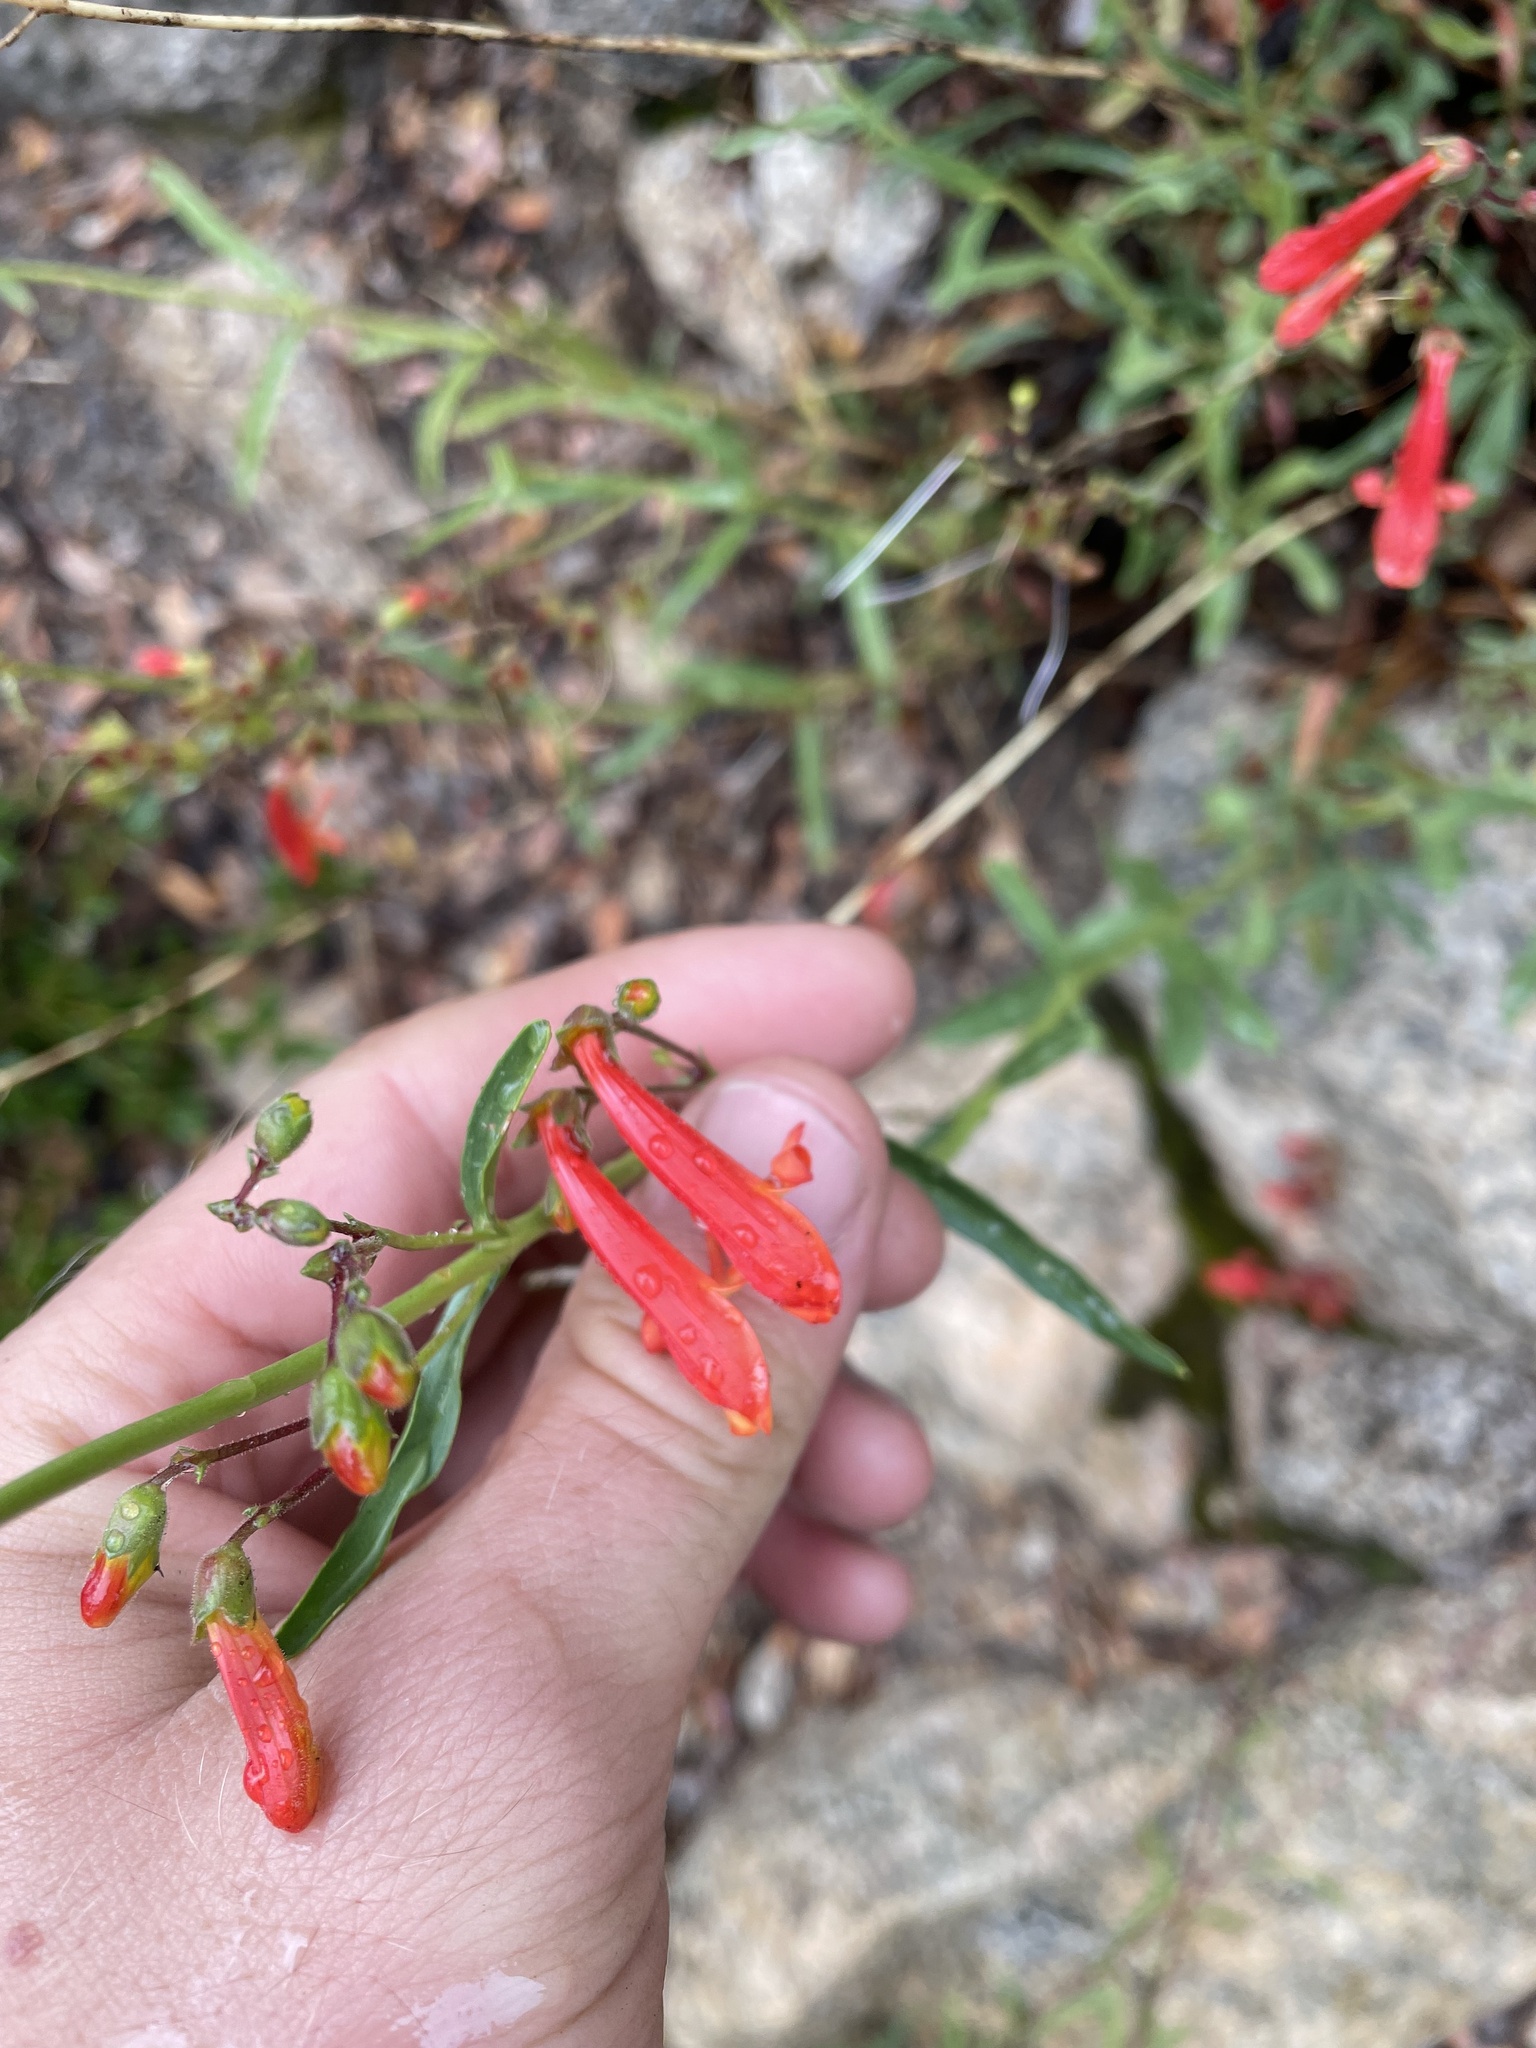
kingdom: Plantae
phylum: Tracheophyta
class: Magnoliopsida
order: Lamiales
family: Plantaginaceae
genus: Penstemon
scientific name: Penstemon rostriflorus
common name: Bridges's penstemon
